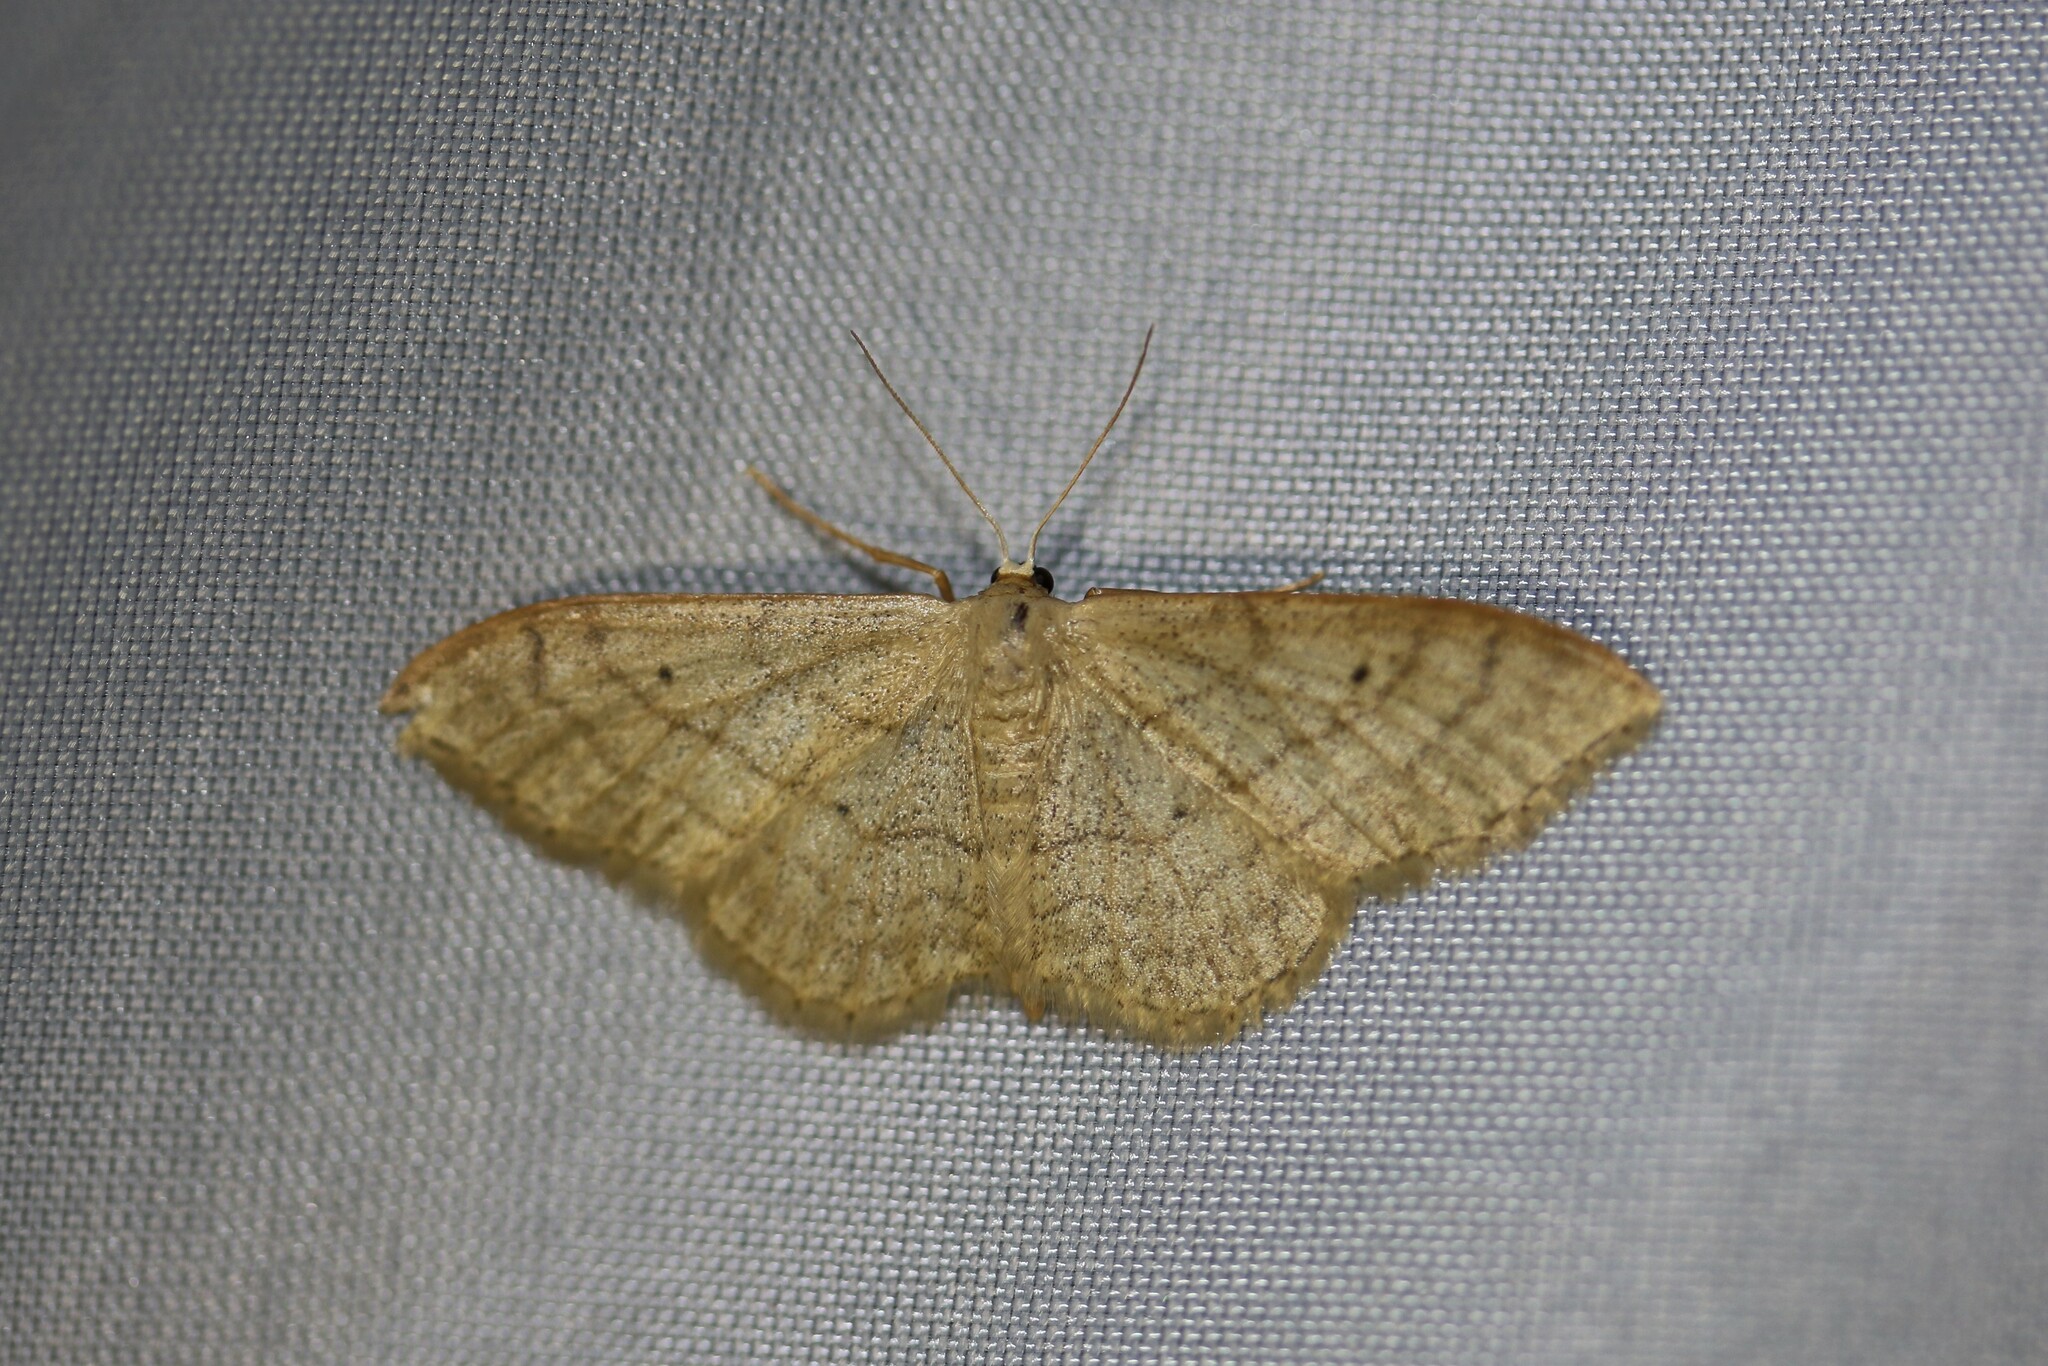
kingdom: Animalia
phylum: Arthropoda
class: Insecta
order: Lepidoptera
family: Geometridae
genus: Idaea
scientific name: Idaea aversata
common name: Riband wave
